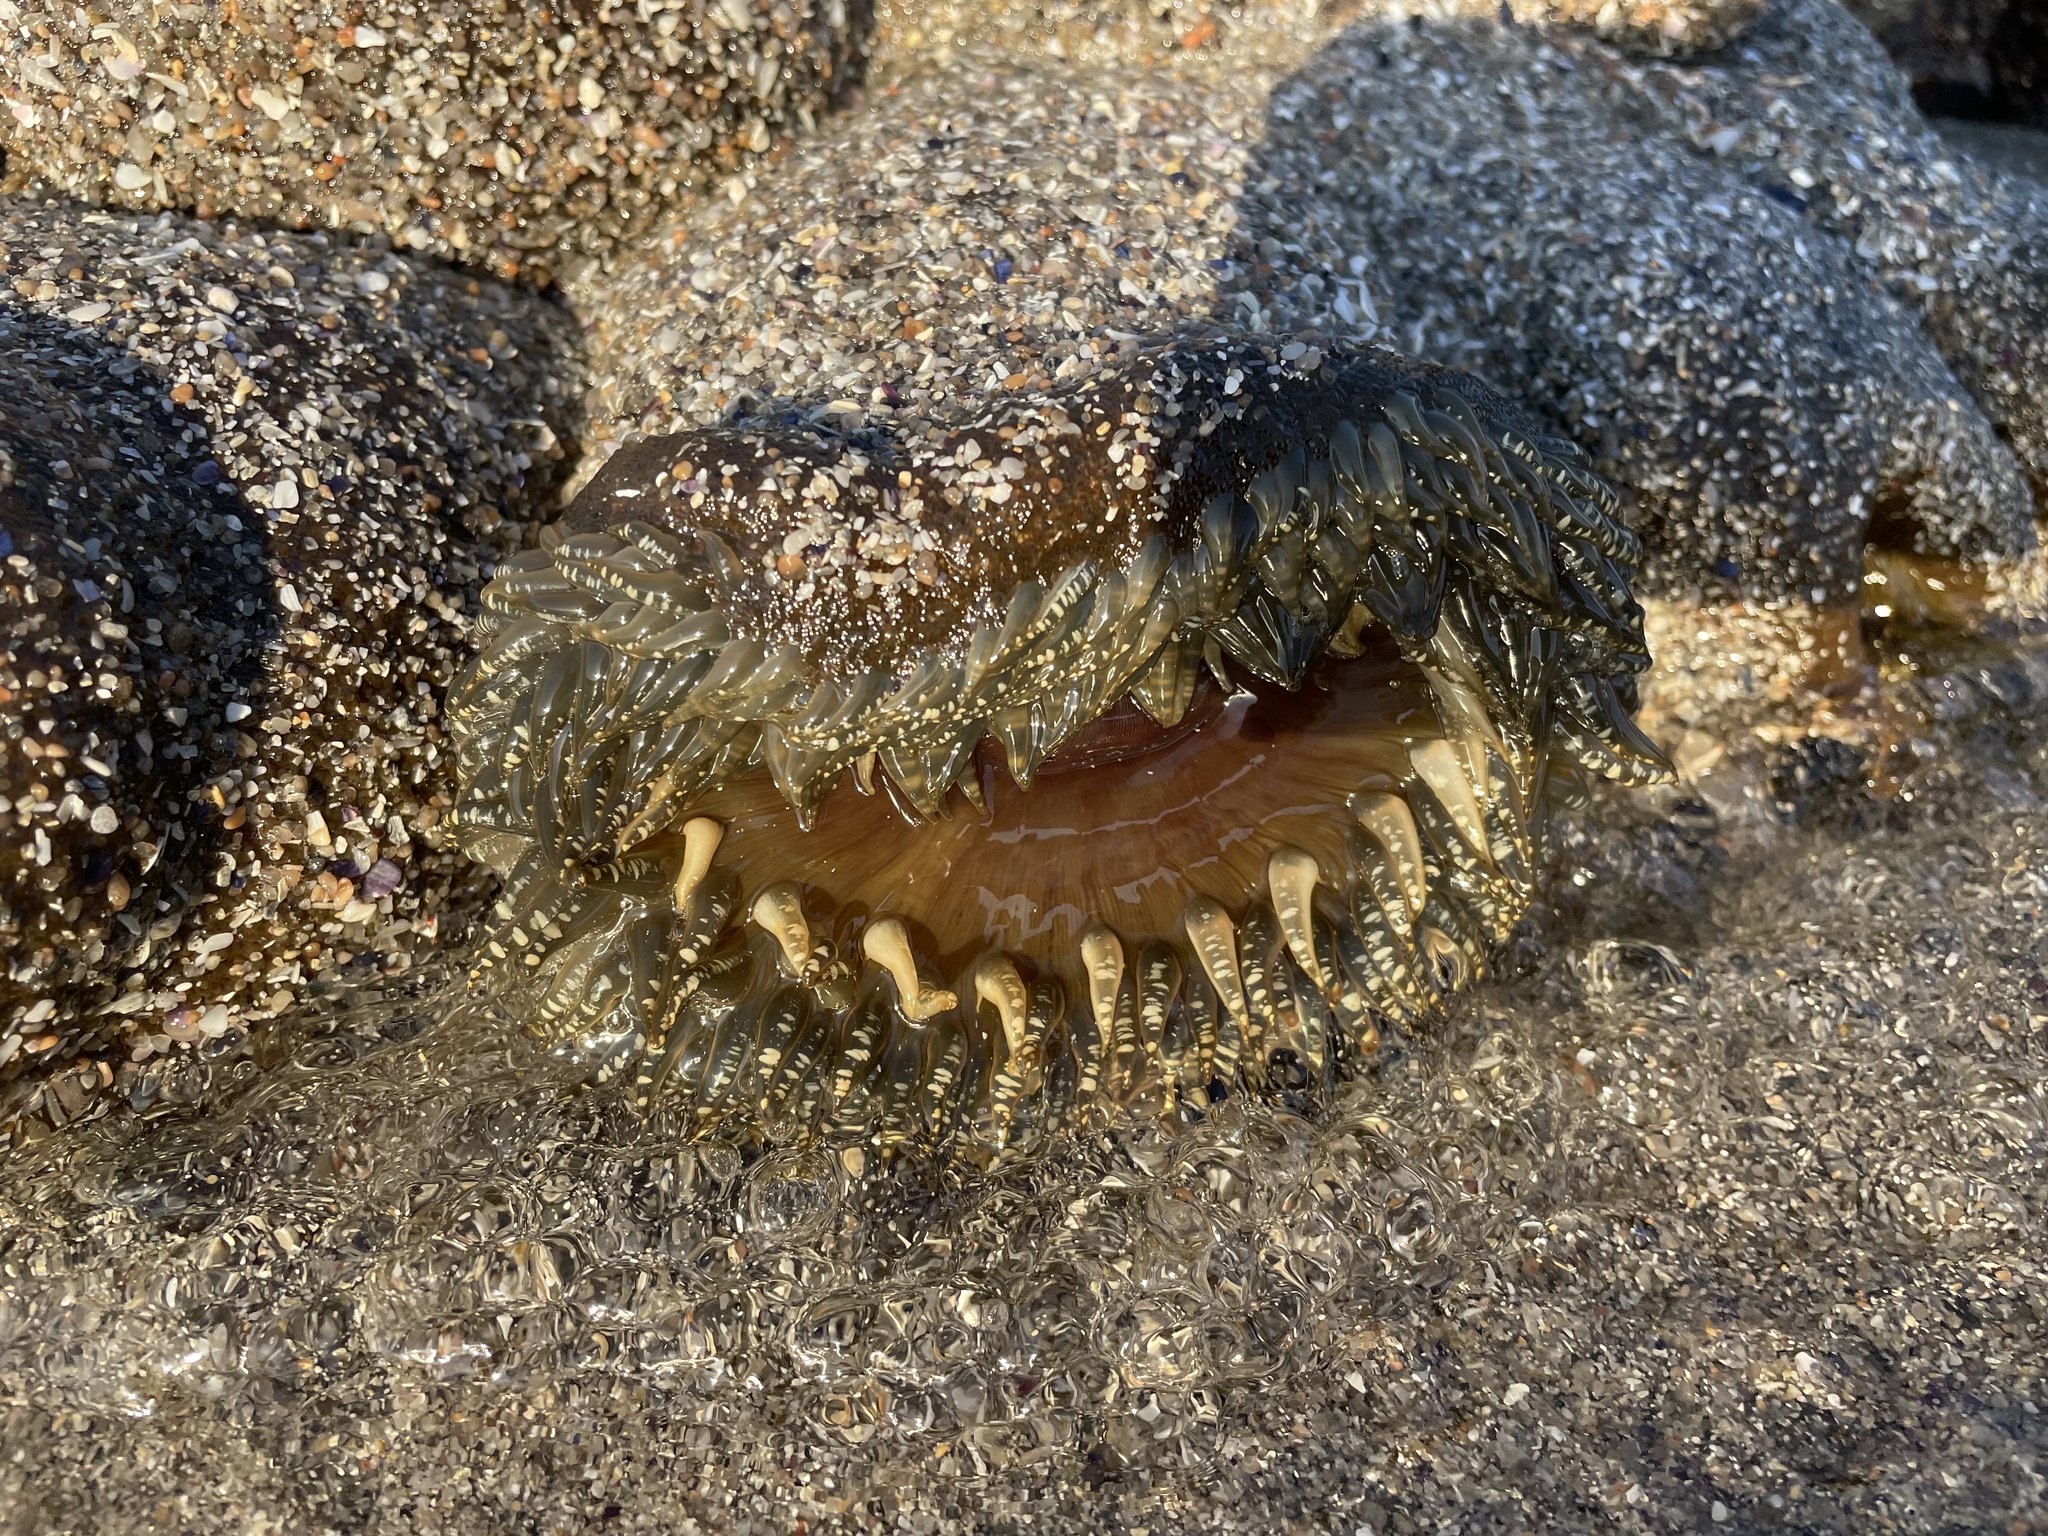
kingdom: Animalia
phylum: Cnidaria
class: Anthozoa
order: Actiniaria
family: Actiniidae
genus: Bunodactis
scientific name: Bunodactis reynaudi
